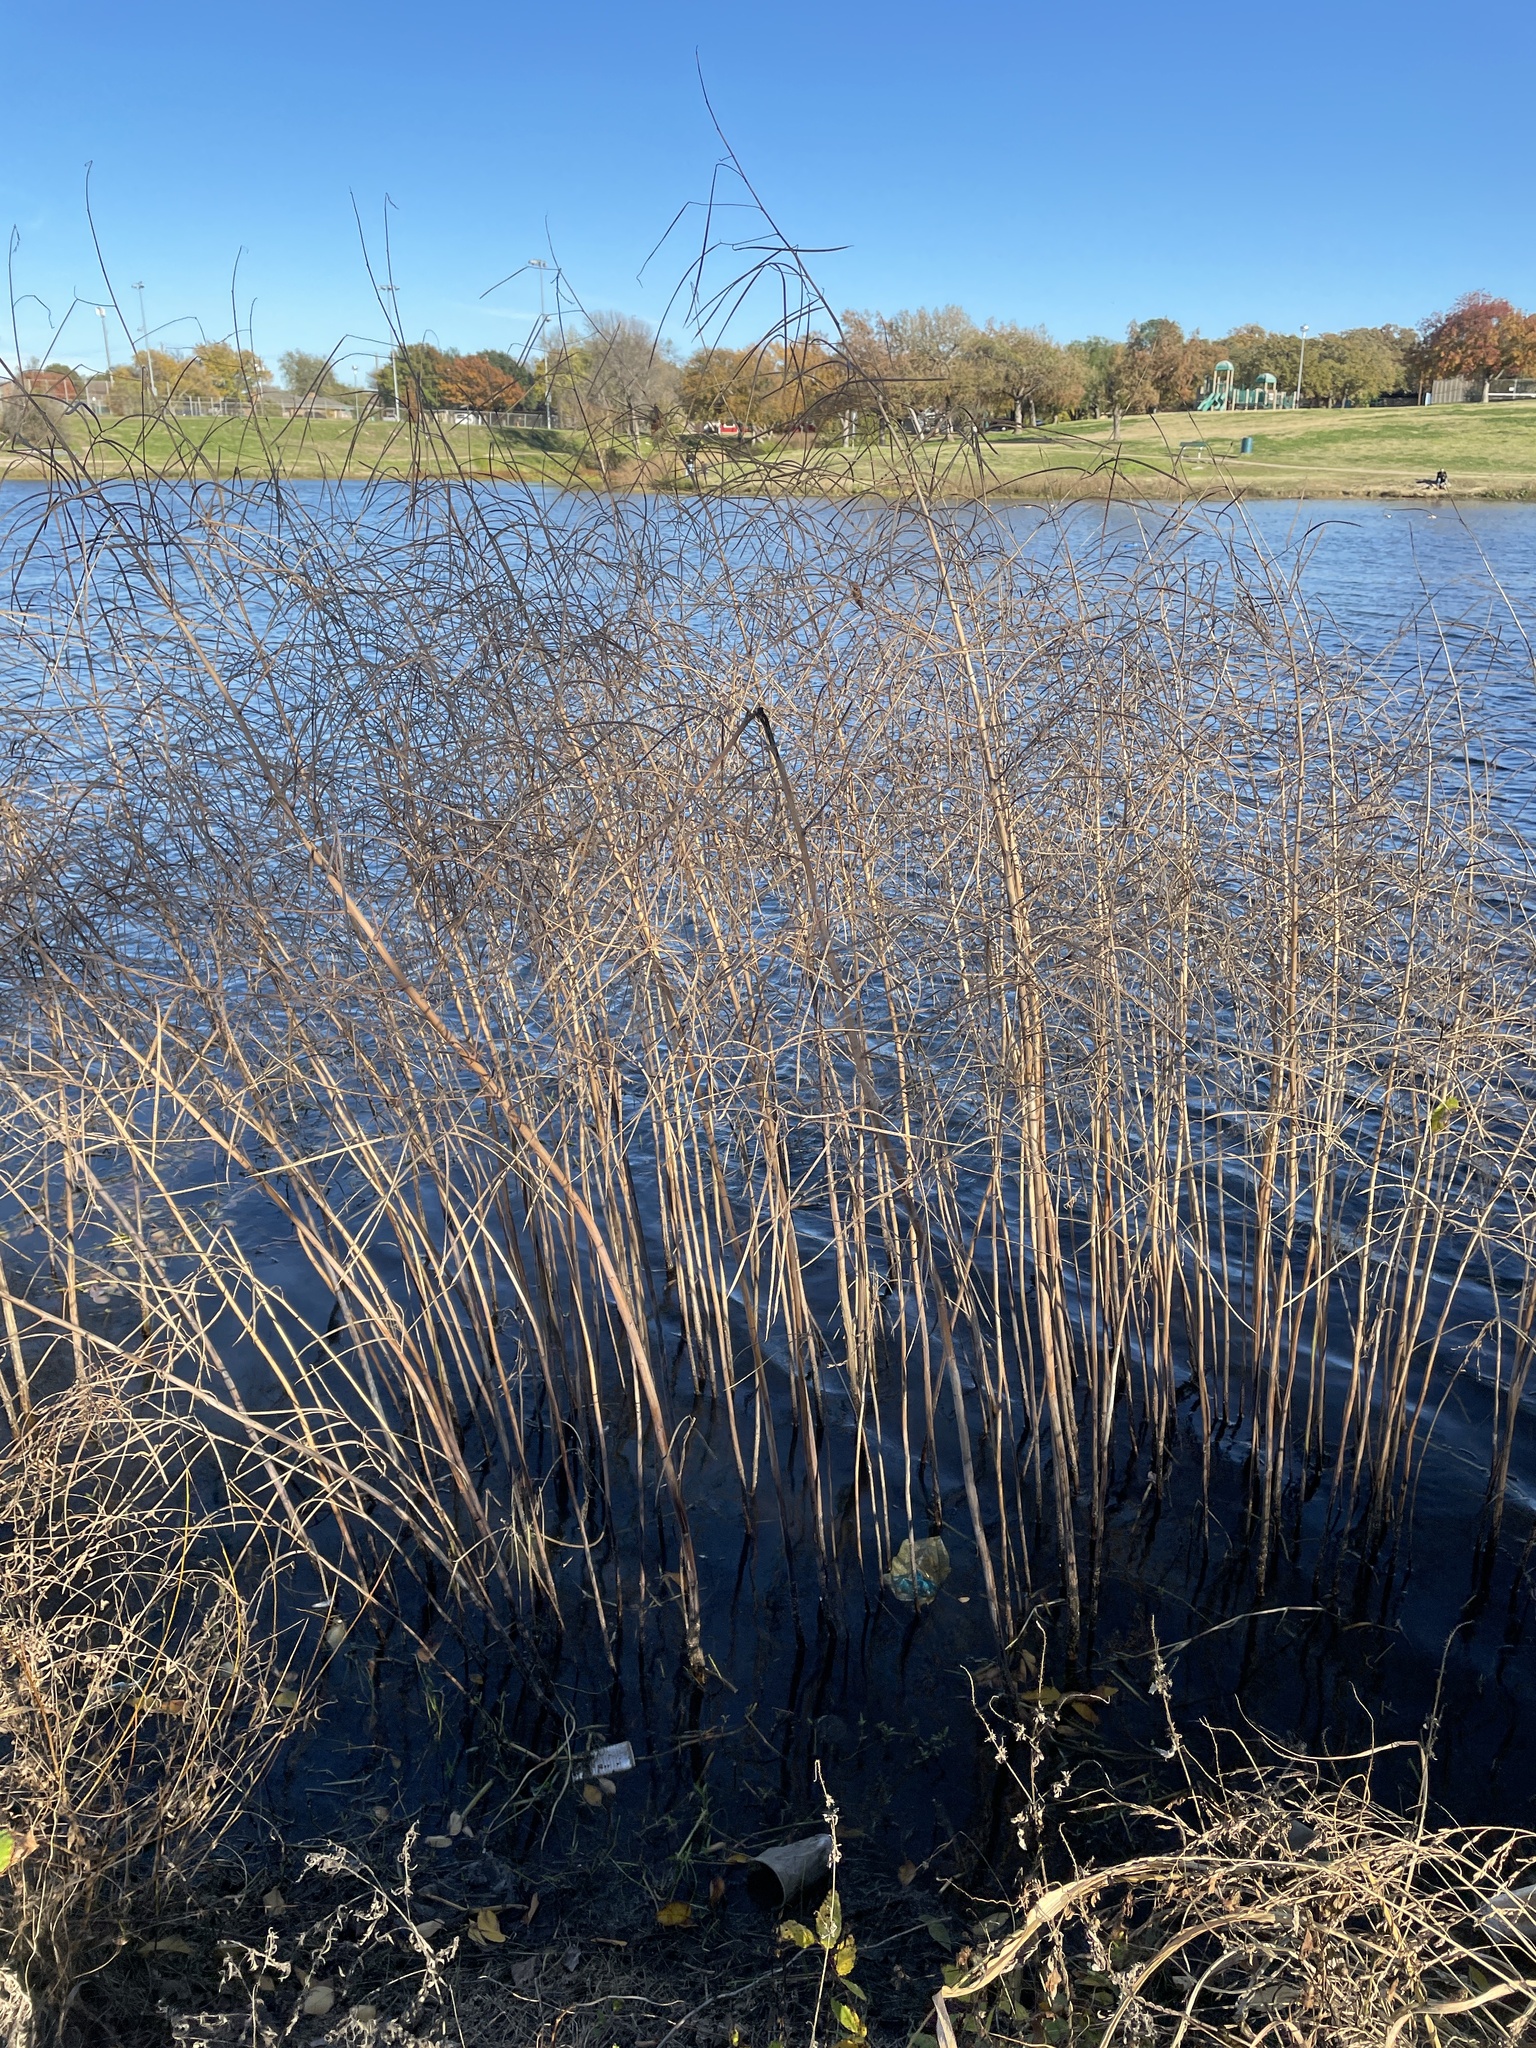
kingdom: Plantae
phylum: Tracheophyta
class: Magnoliopsida
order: Fabales
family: Fabaceae
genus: Sesbania
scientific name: Sesbania herbacea
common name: Bigpod sesbania
